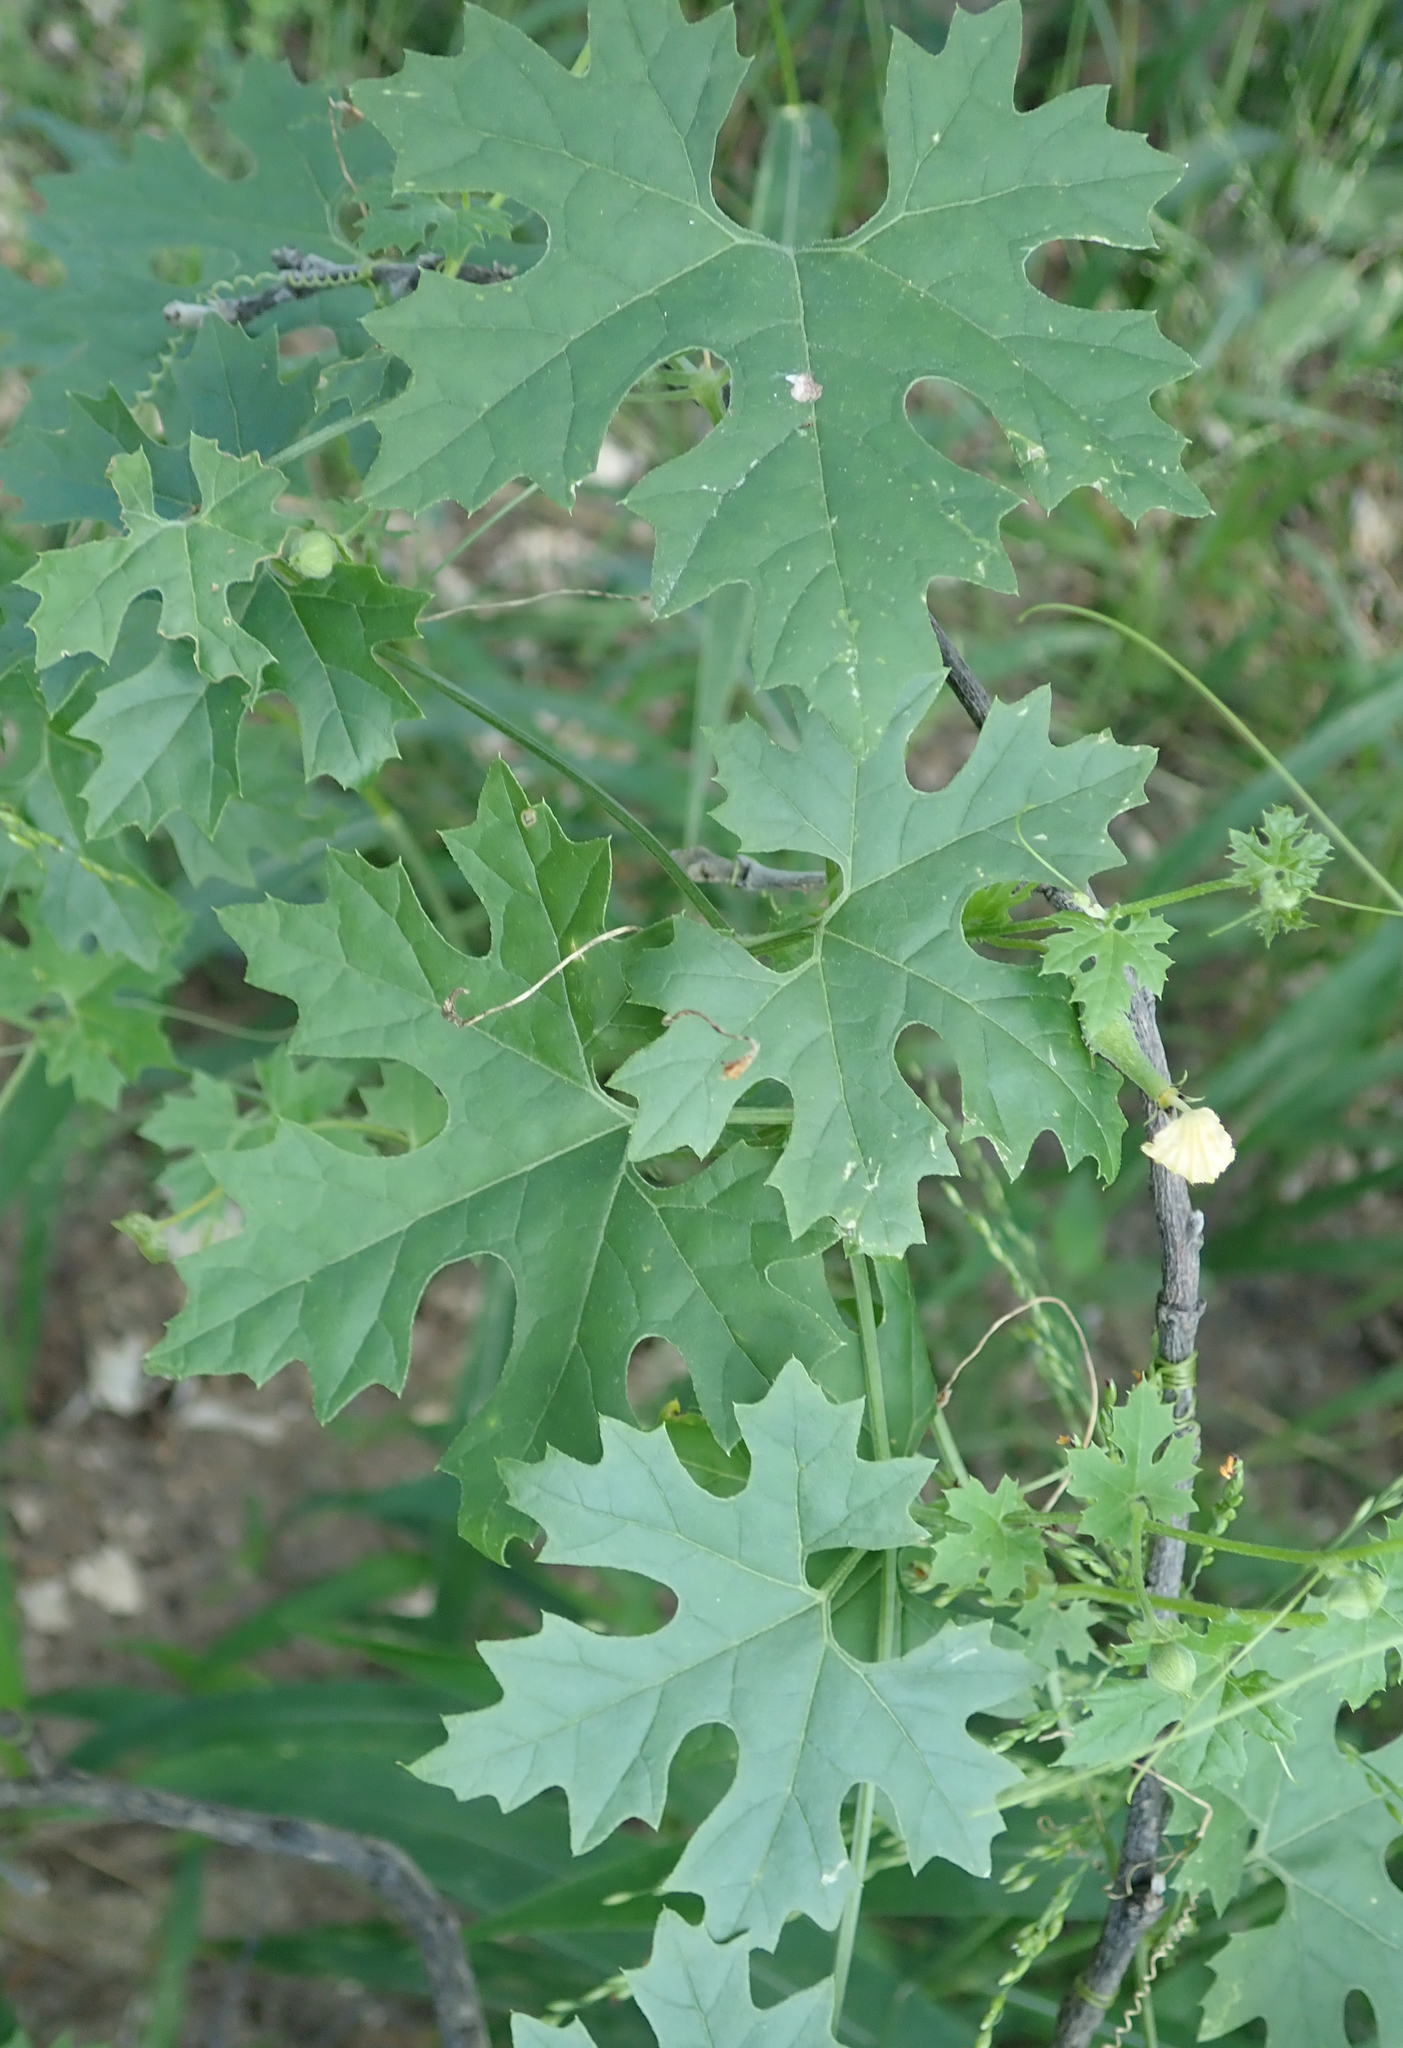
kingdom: Plantae
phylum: Tracheophyta
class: Magnoliopsida
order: Cucurbitales
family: Cucurbitaceae
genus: Momordica
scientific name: Momordica balsamina
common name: Southern balsampear
